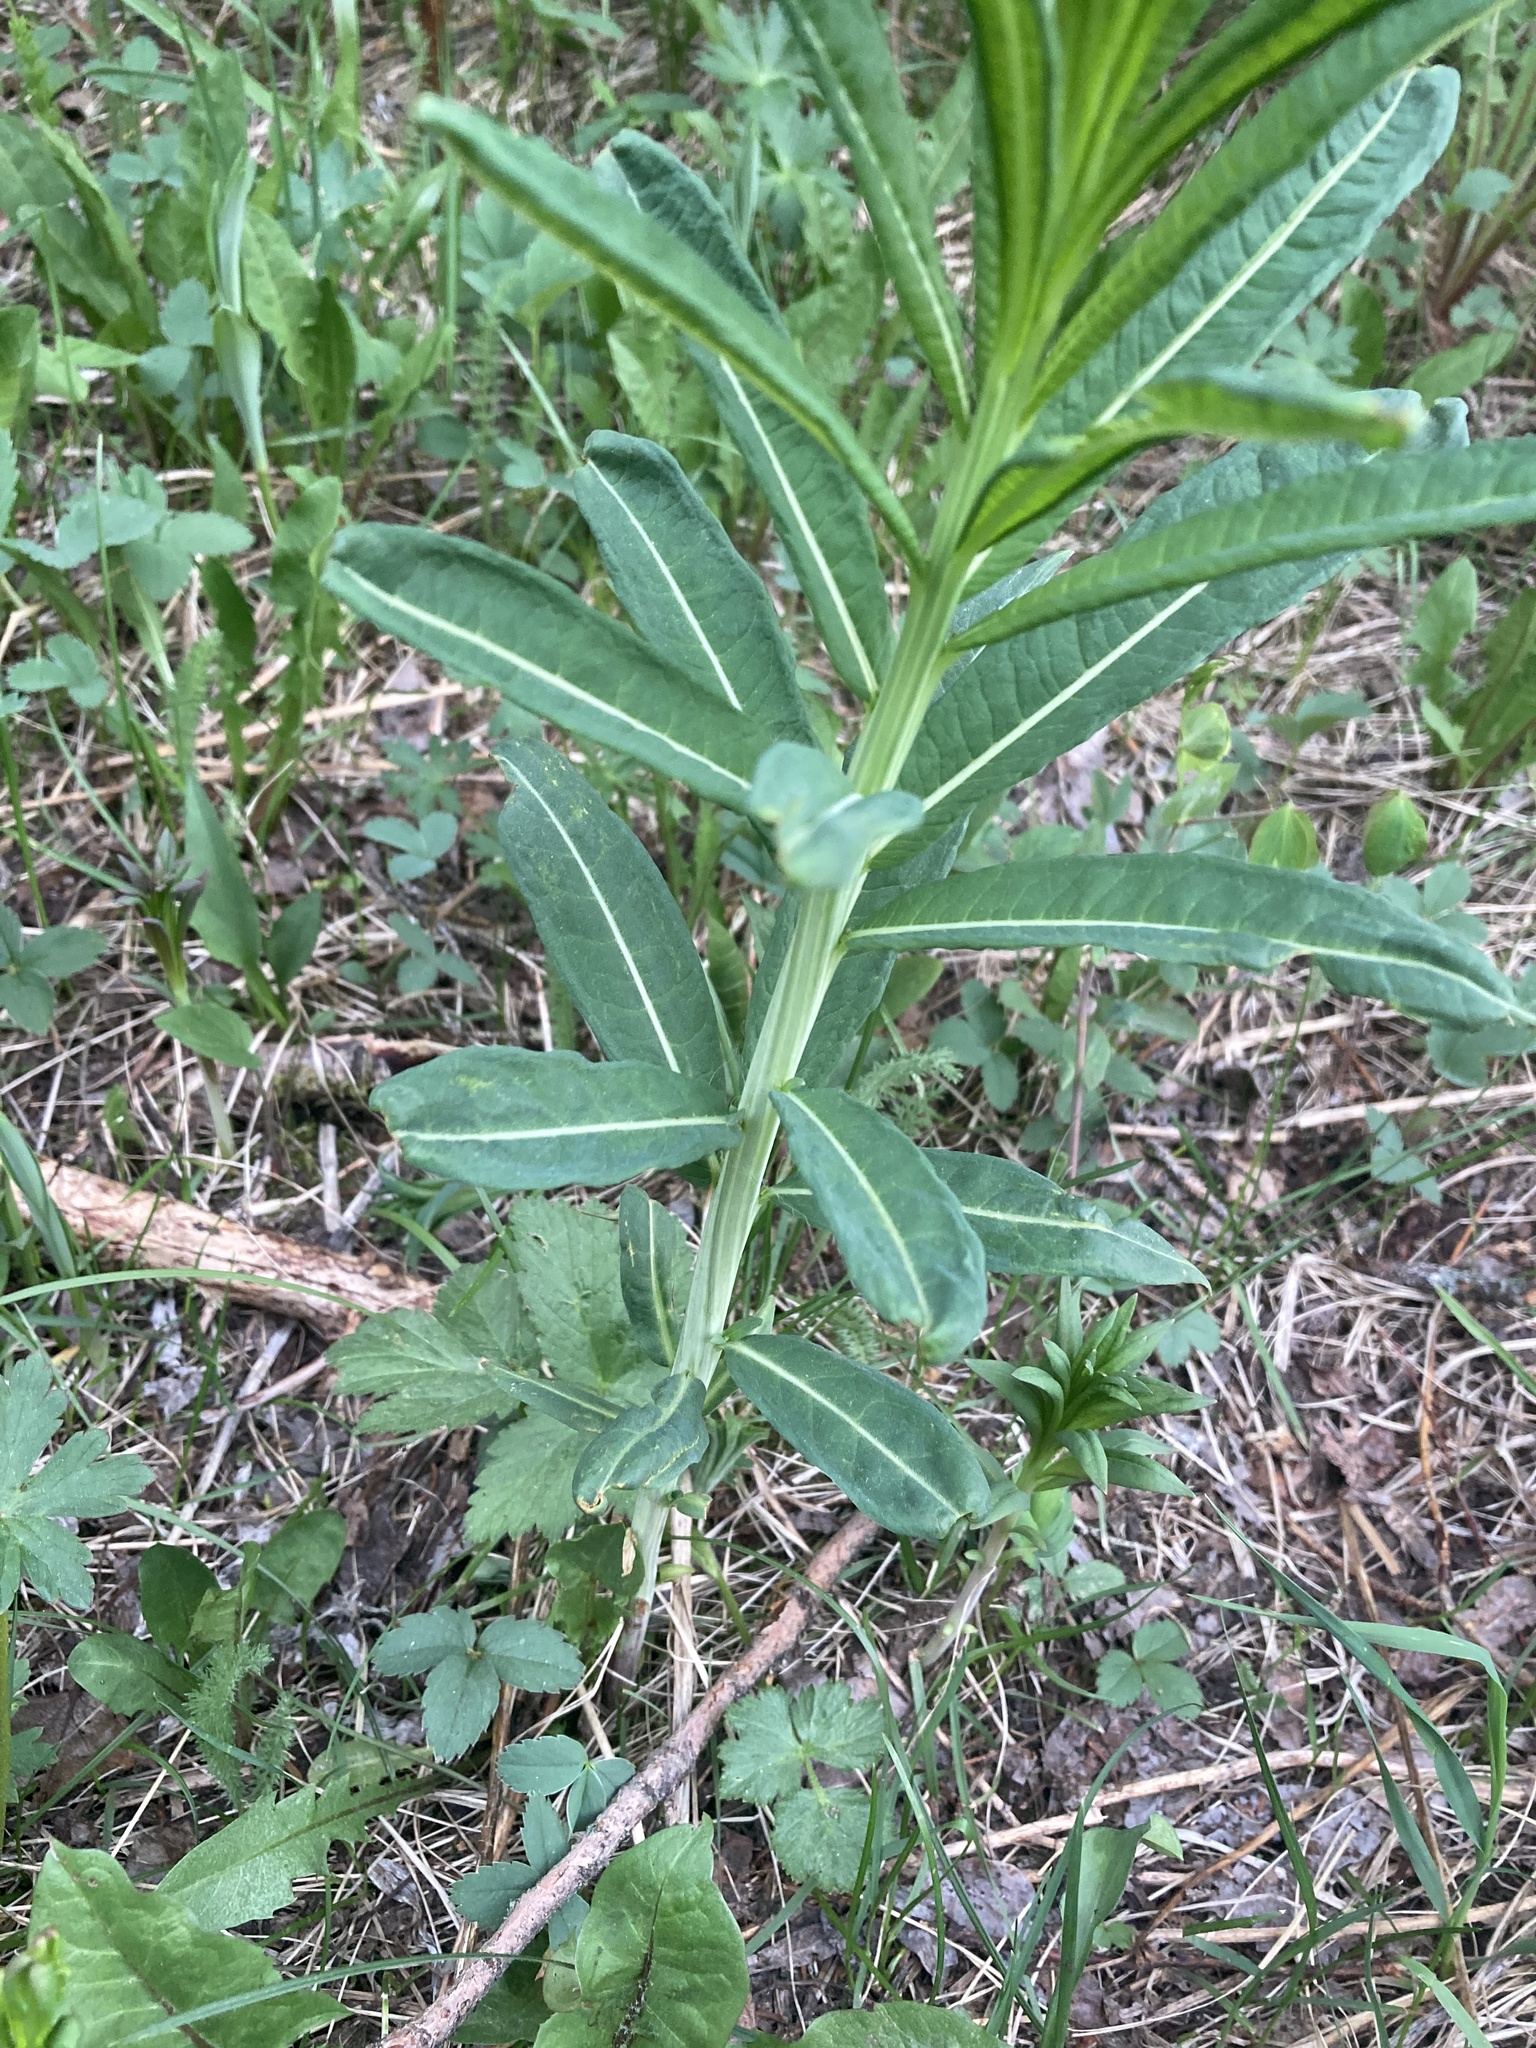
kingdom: Plantae
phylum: Tracheophyta
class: Magnoliopsida
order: Myrtales
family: Onagraceae
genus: Chamaenerion
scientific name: Chamaenerion angustifolium
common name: Fireweed
